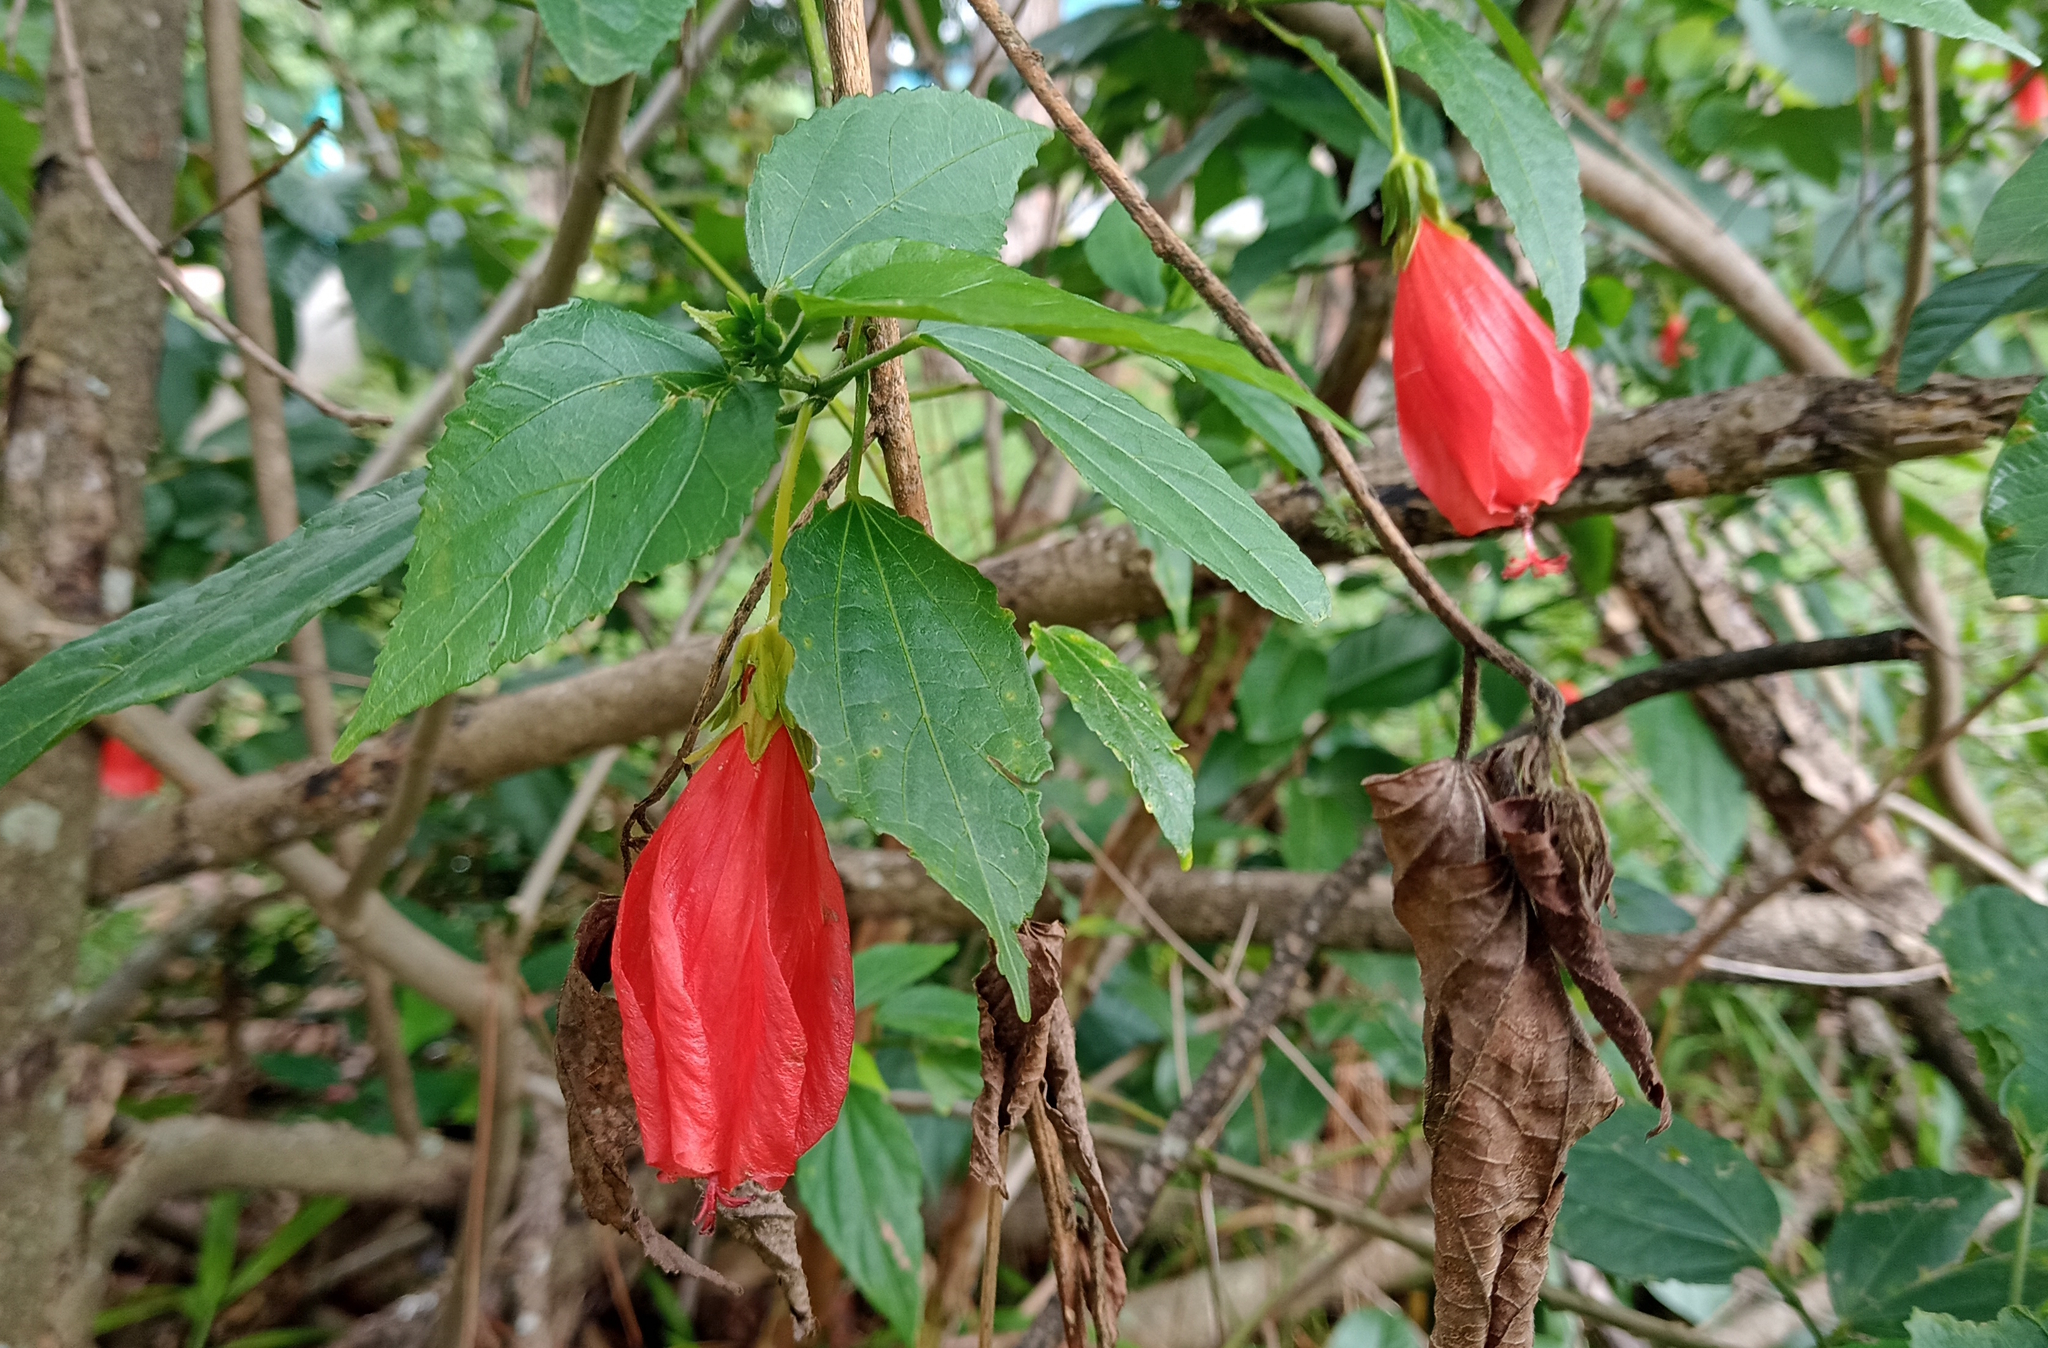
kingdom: Plantae
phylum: Tracheophyta
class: Magnoliopsida
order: Malvales
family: Malvaceae
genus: Malvaviscus
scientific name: Malvaviscus penduliflorus
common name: Mazapan
